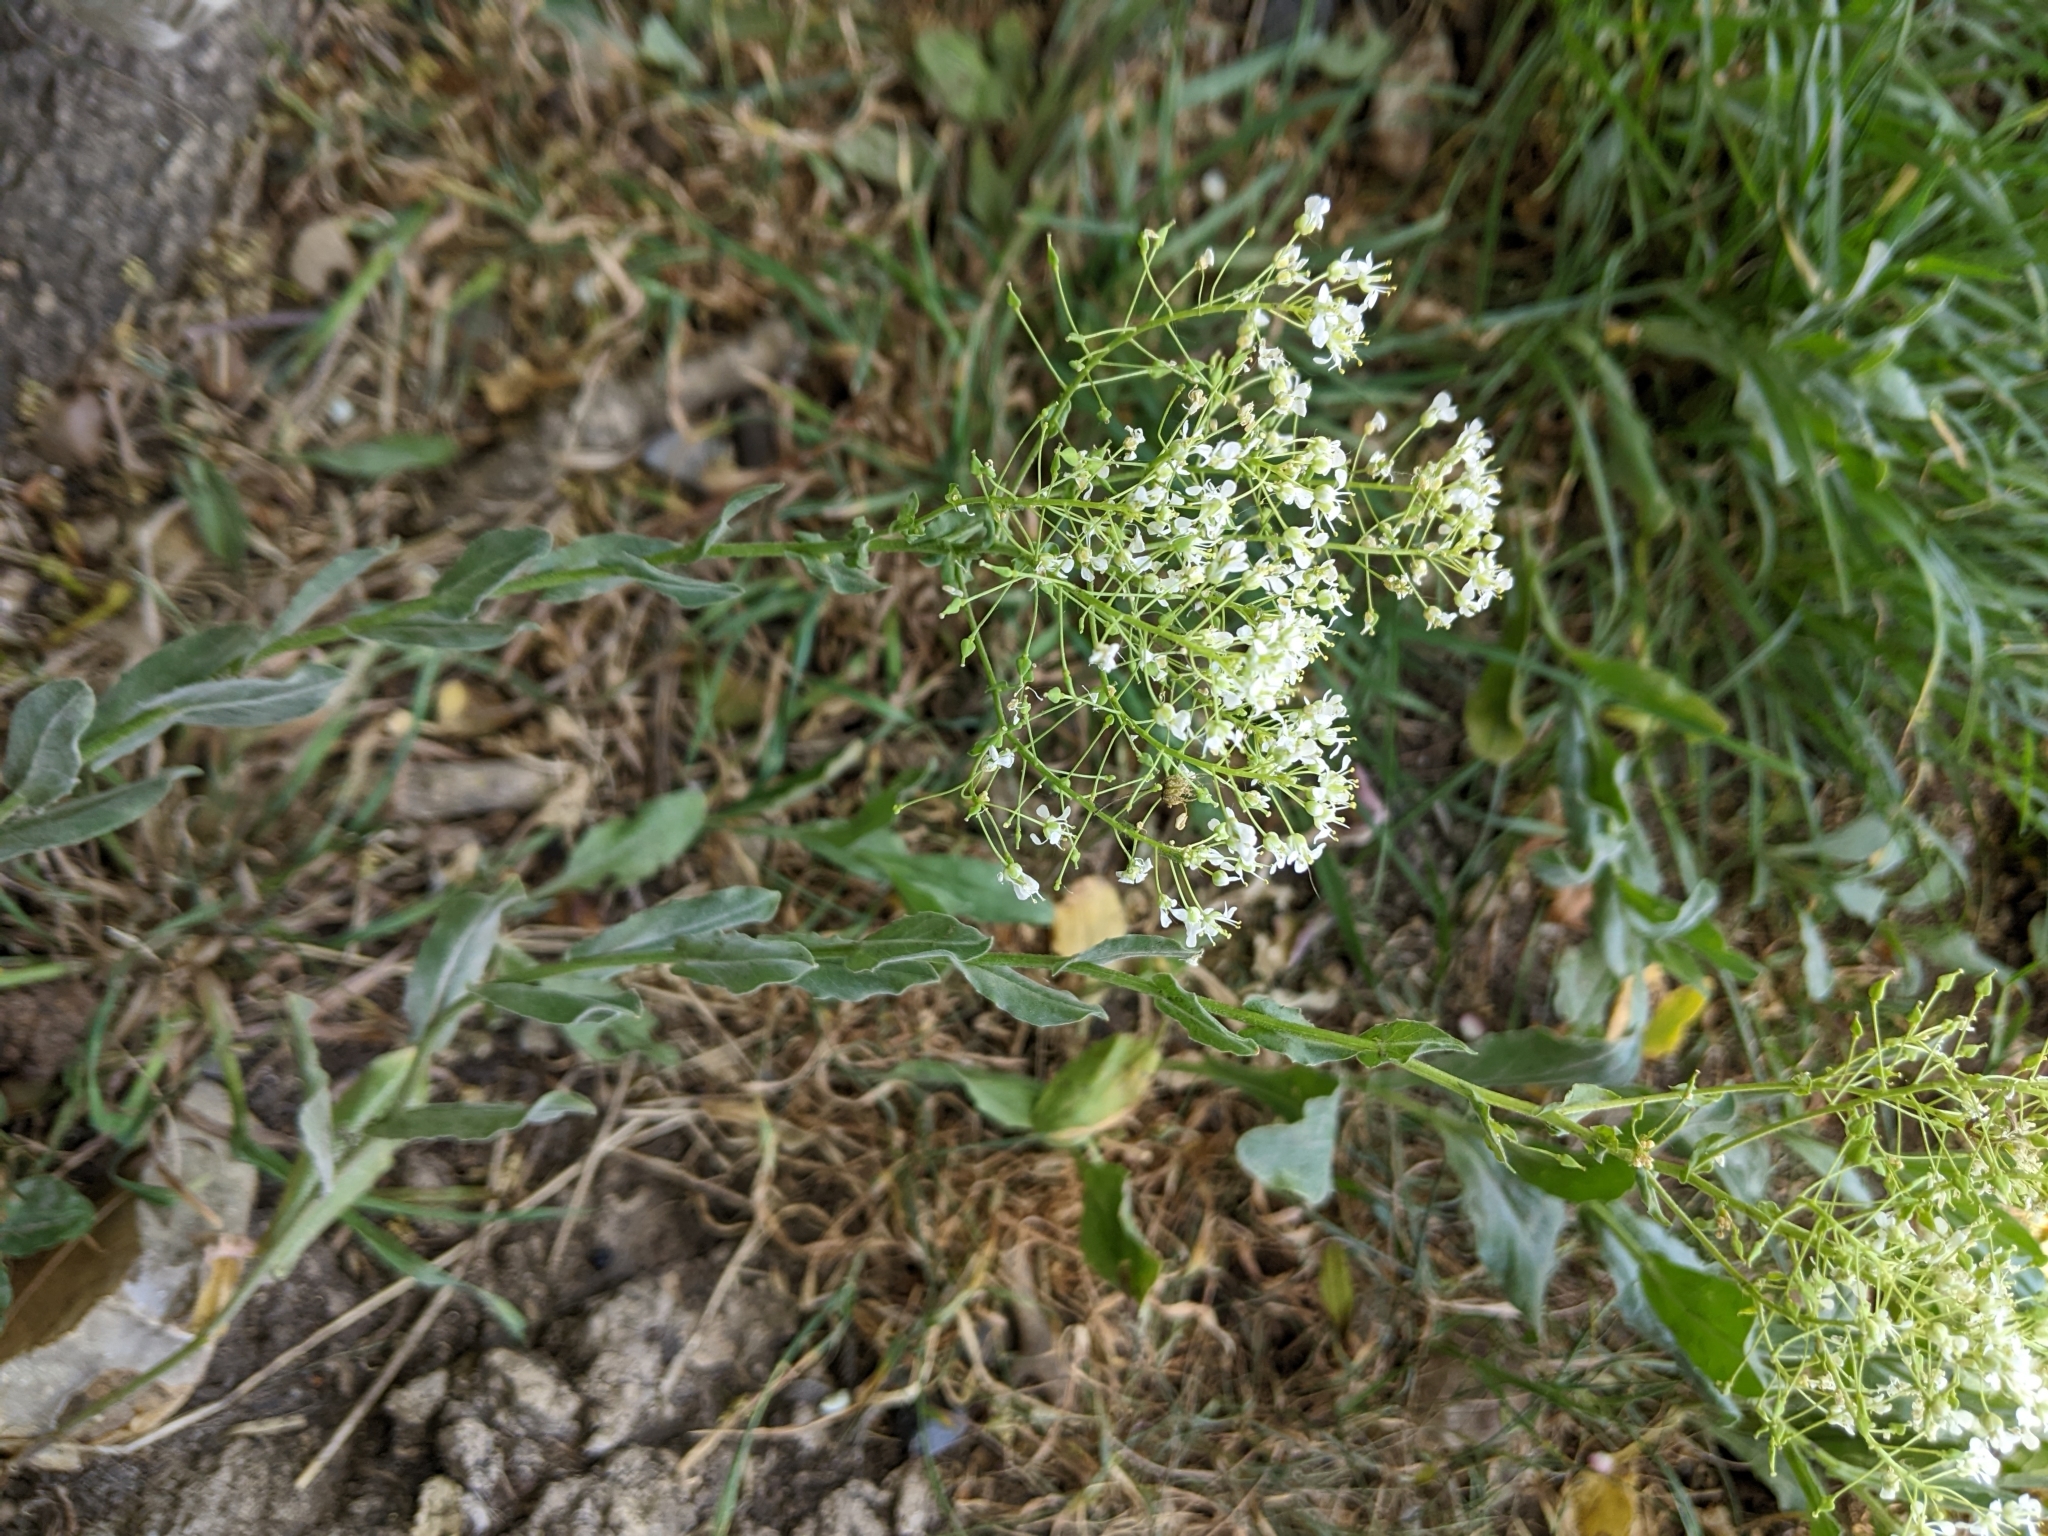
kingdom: Plantae
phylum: Tracheophyta
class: Magnoliopsida
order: Brassicales
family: Brassicaceae
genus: Lepidium
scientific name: Lepidium draba
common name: Hoary cress
